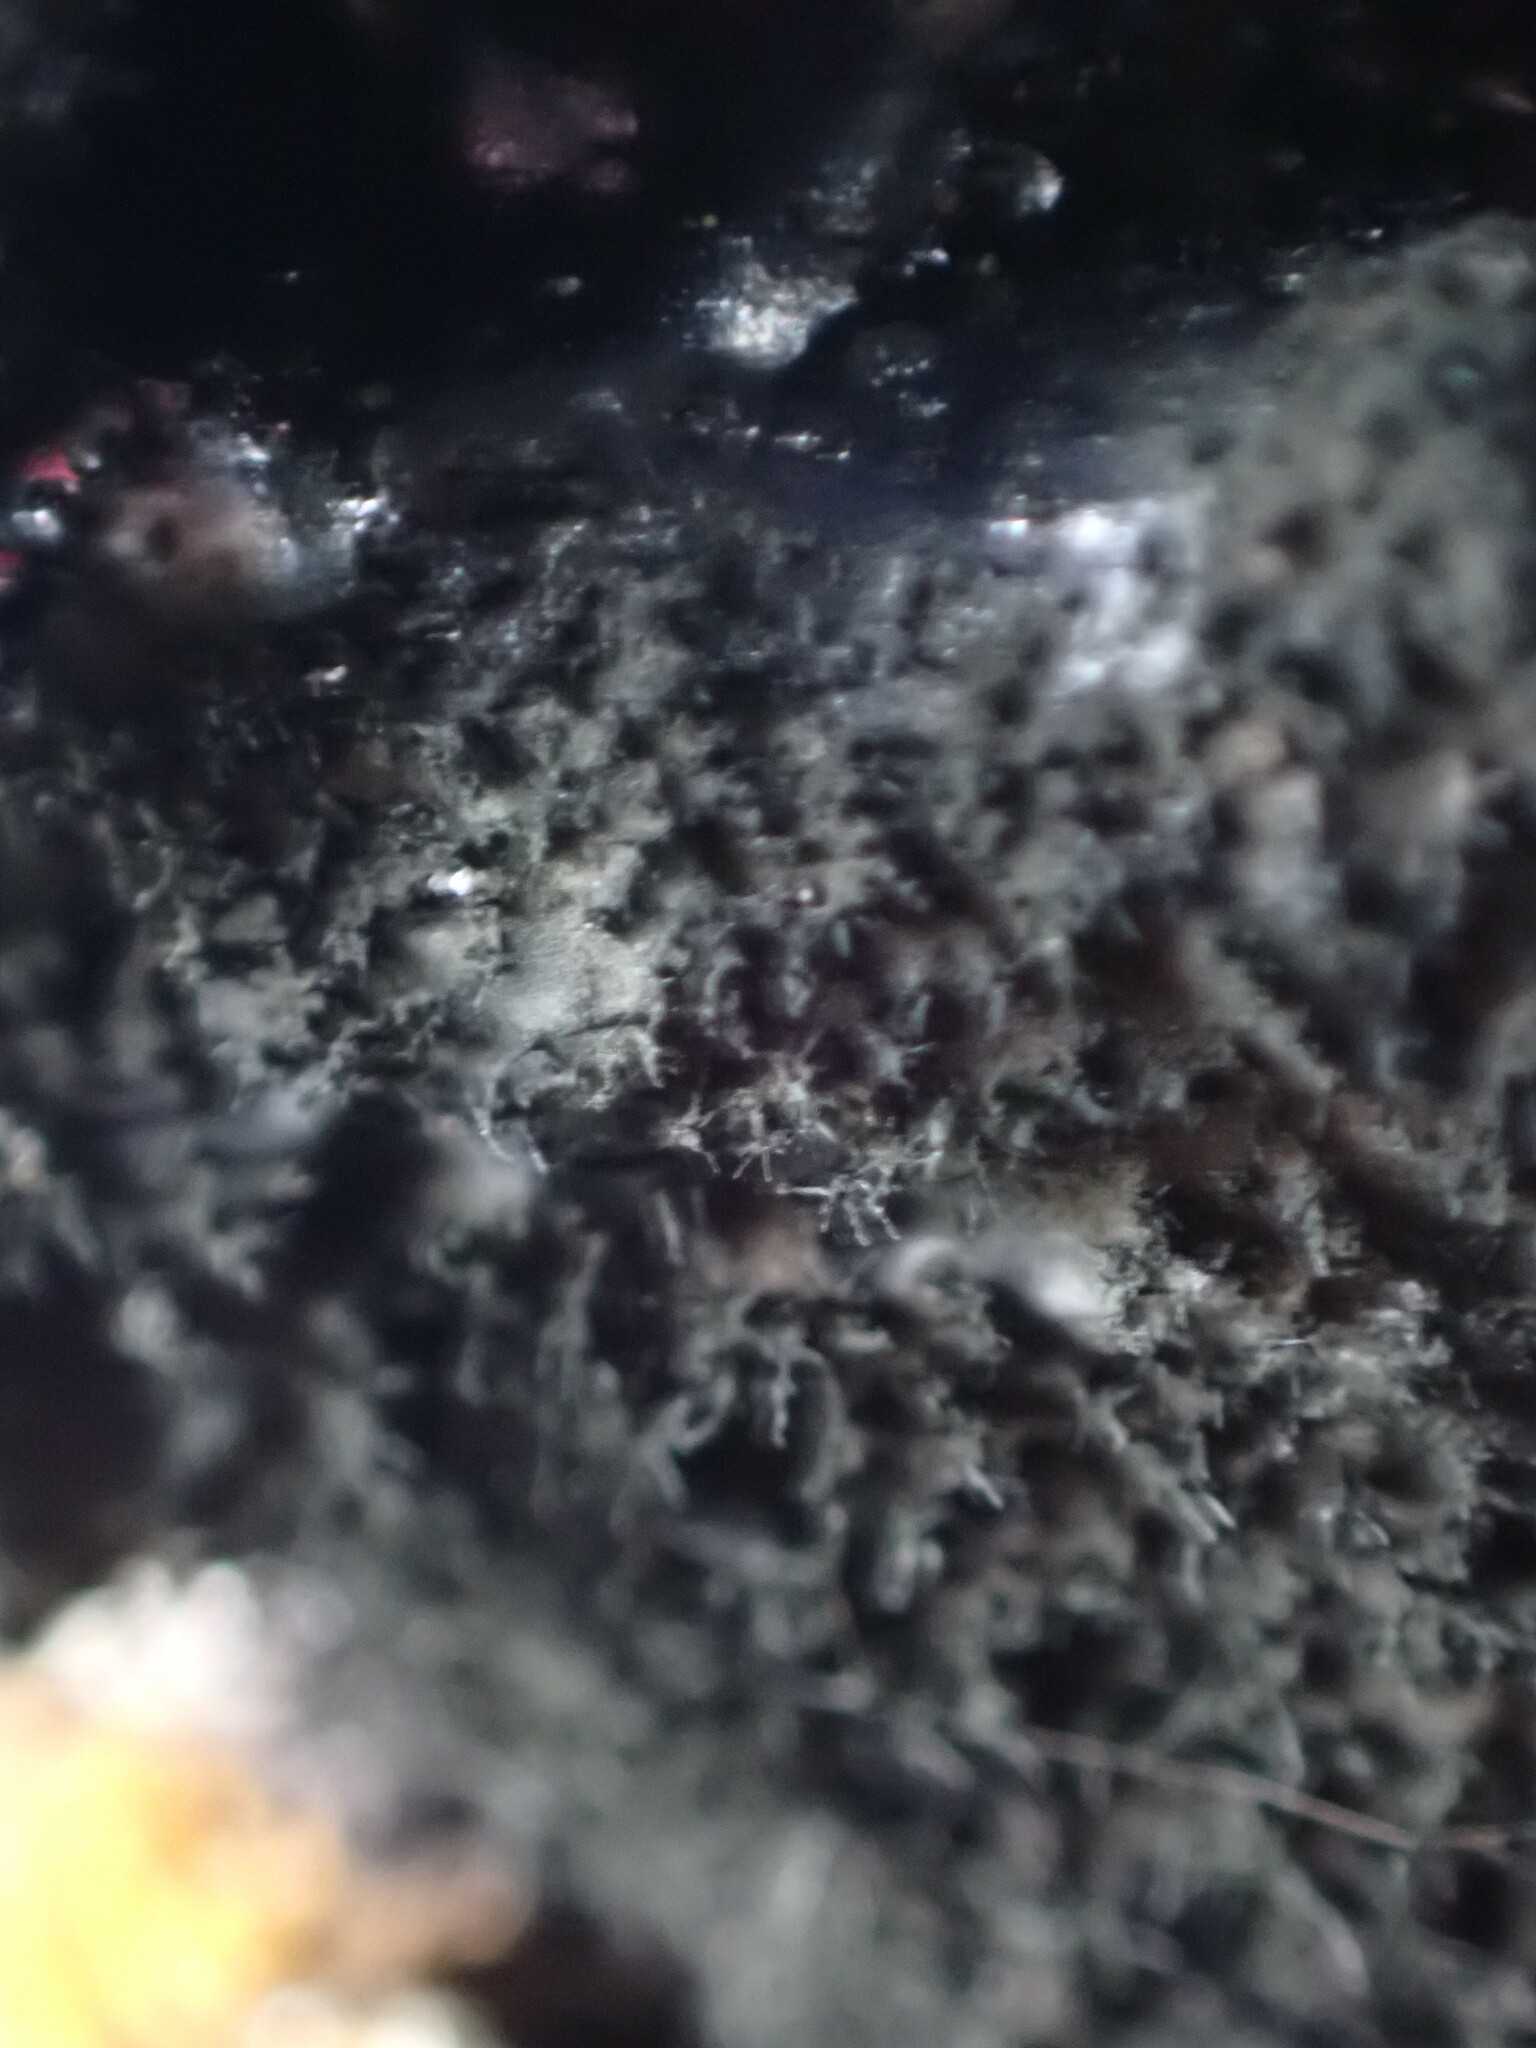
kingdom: Fungi
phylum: Ascomycota
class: Leotiomycetes
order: Helotiales
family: Amorphothecaceae
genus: Sorocybe
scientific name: Sorocybe resinae
